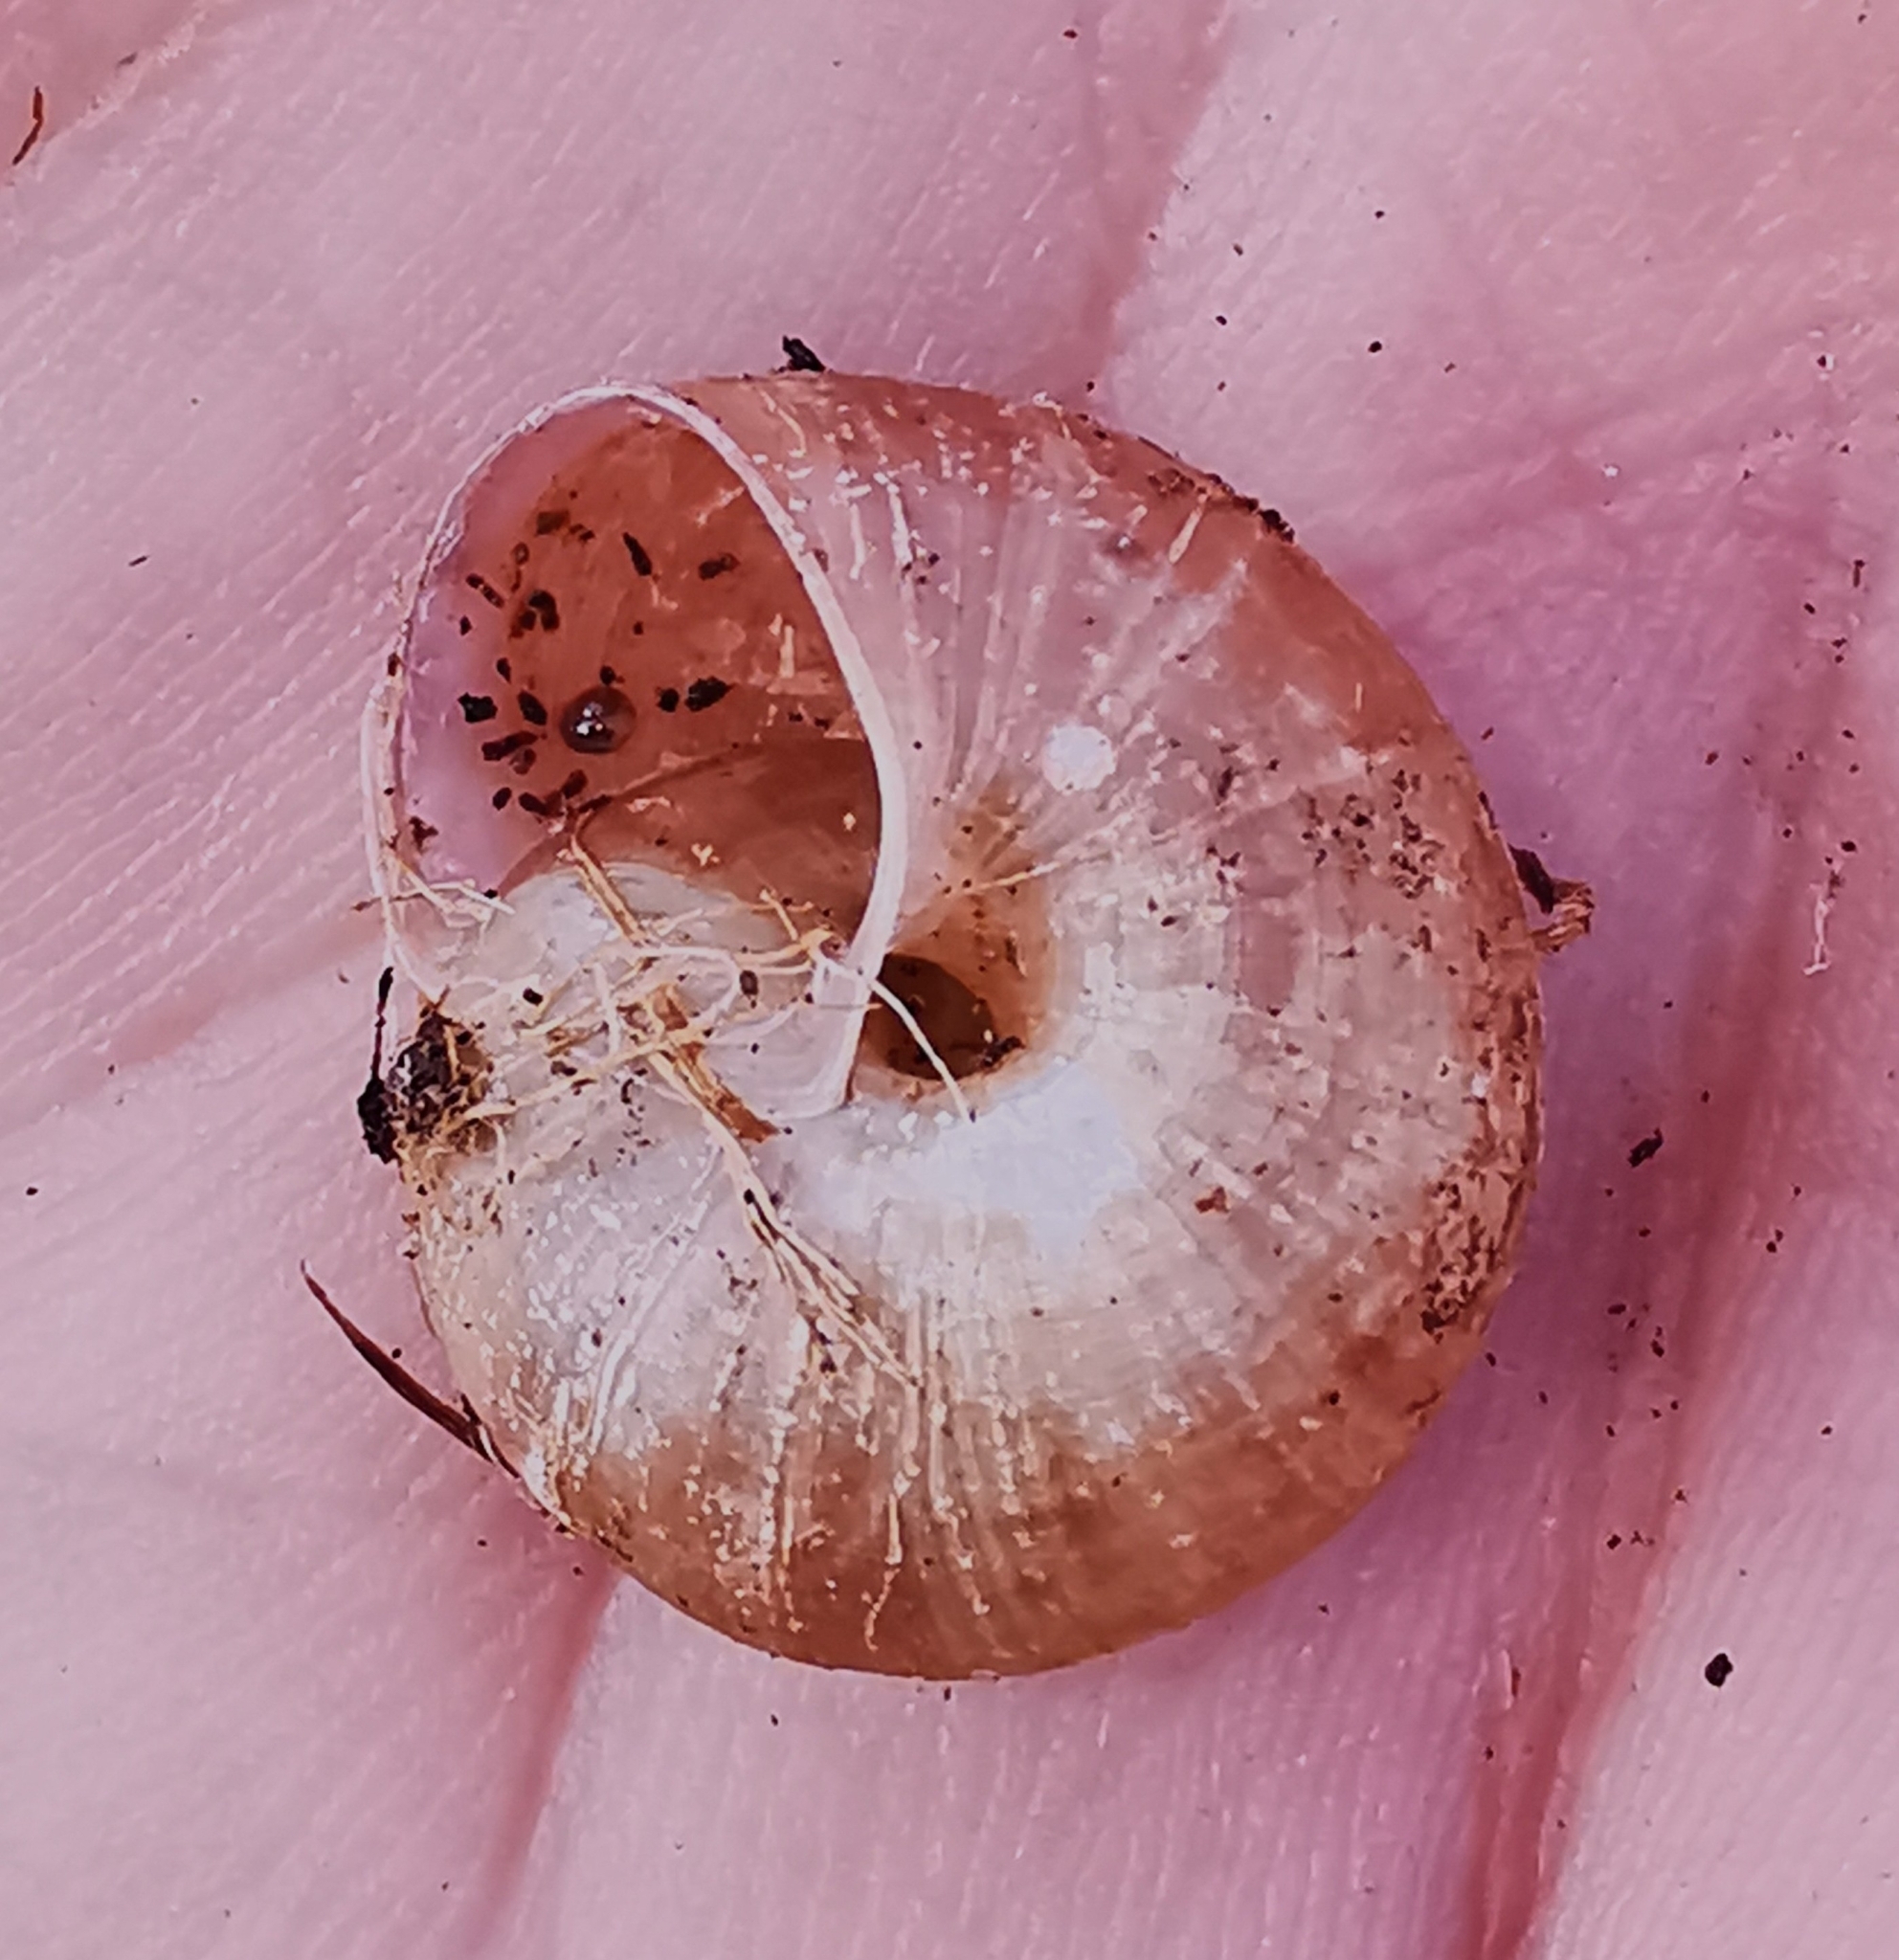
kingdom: Animalia
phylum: Mollusca
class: Gastropoda
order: Stylommatophora
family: Camaenidae
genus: Fruticicola
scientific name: Fruticicola fruticum
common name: Bush snail
